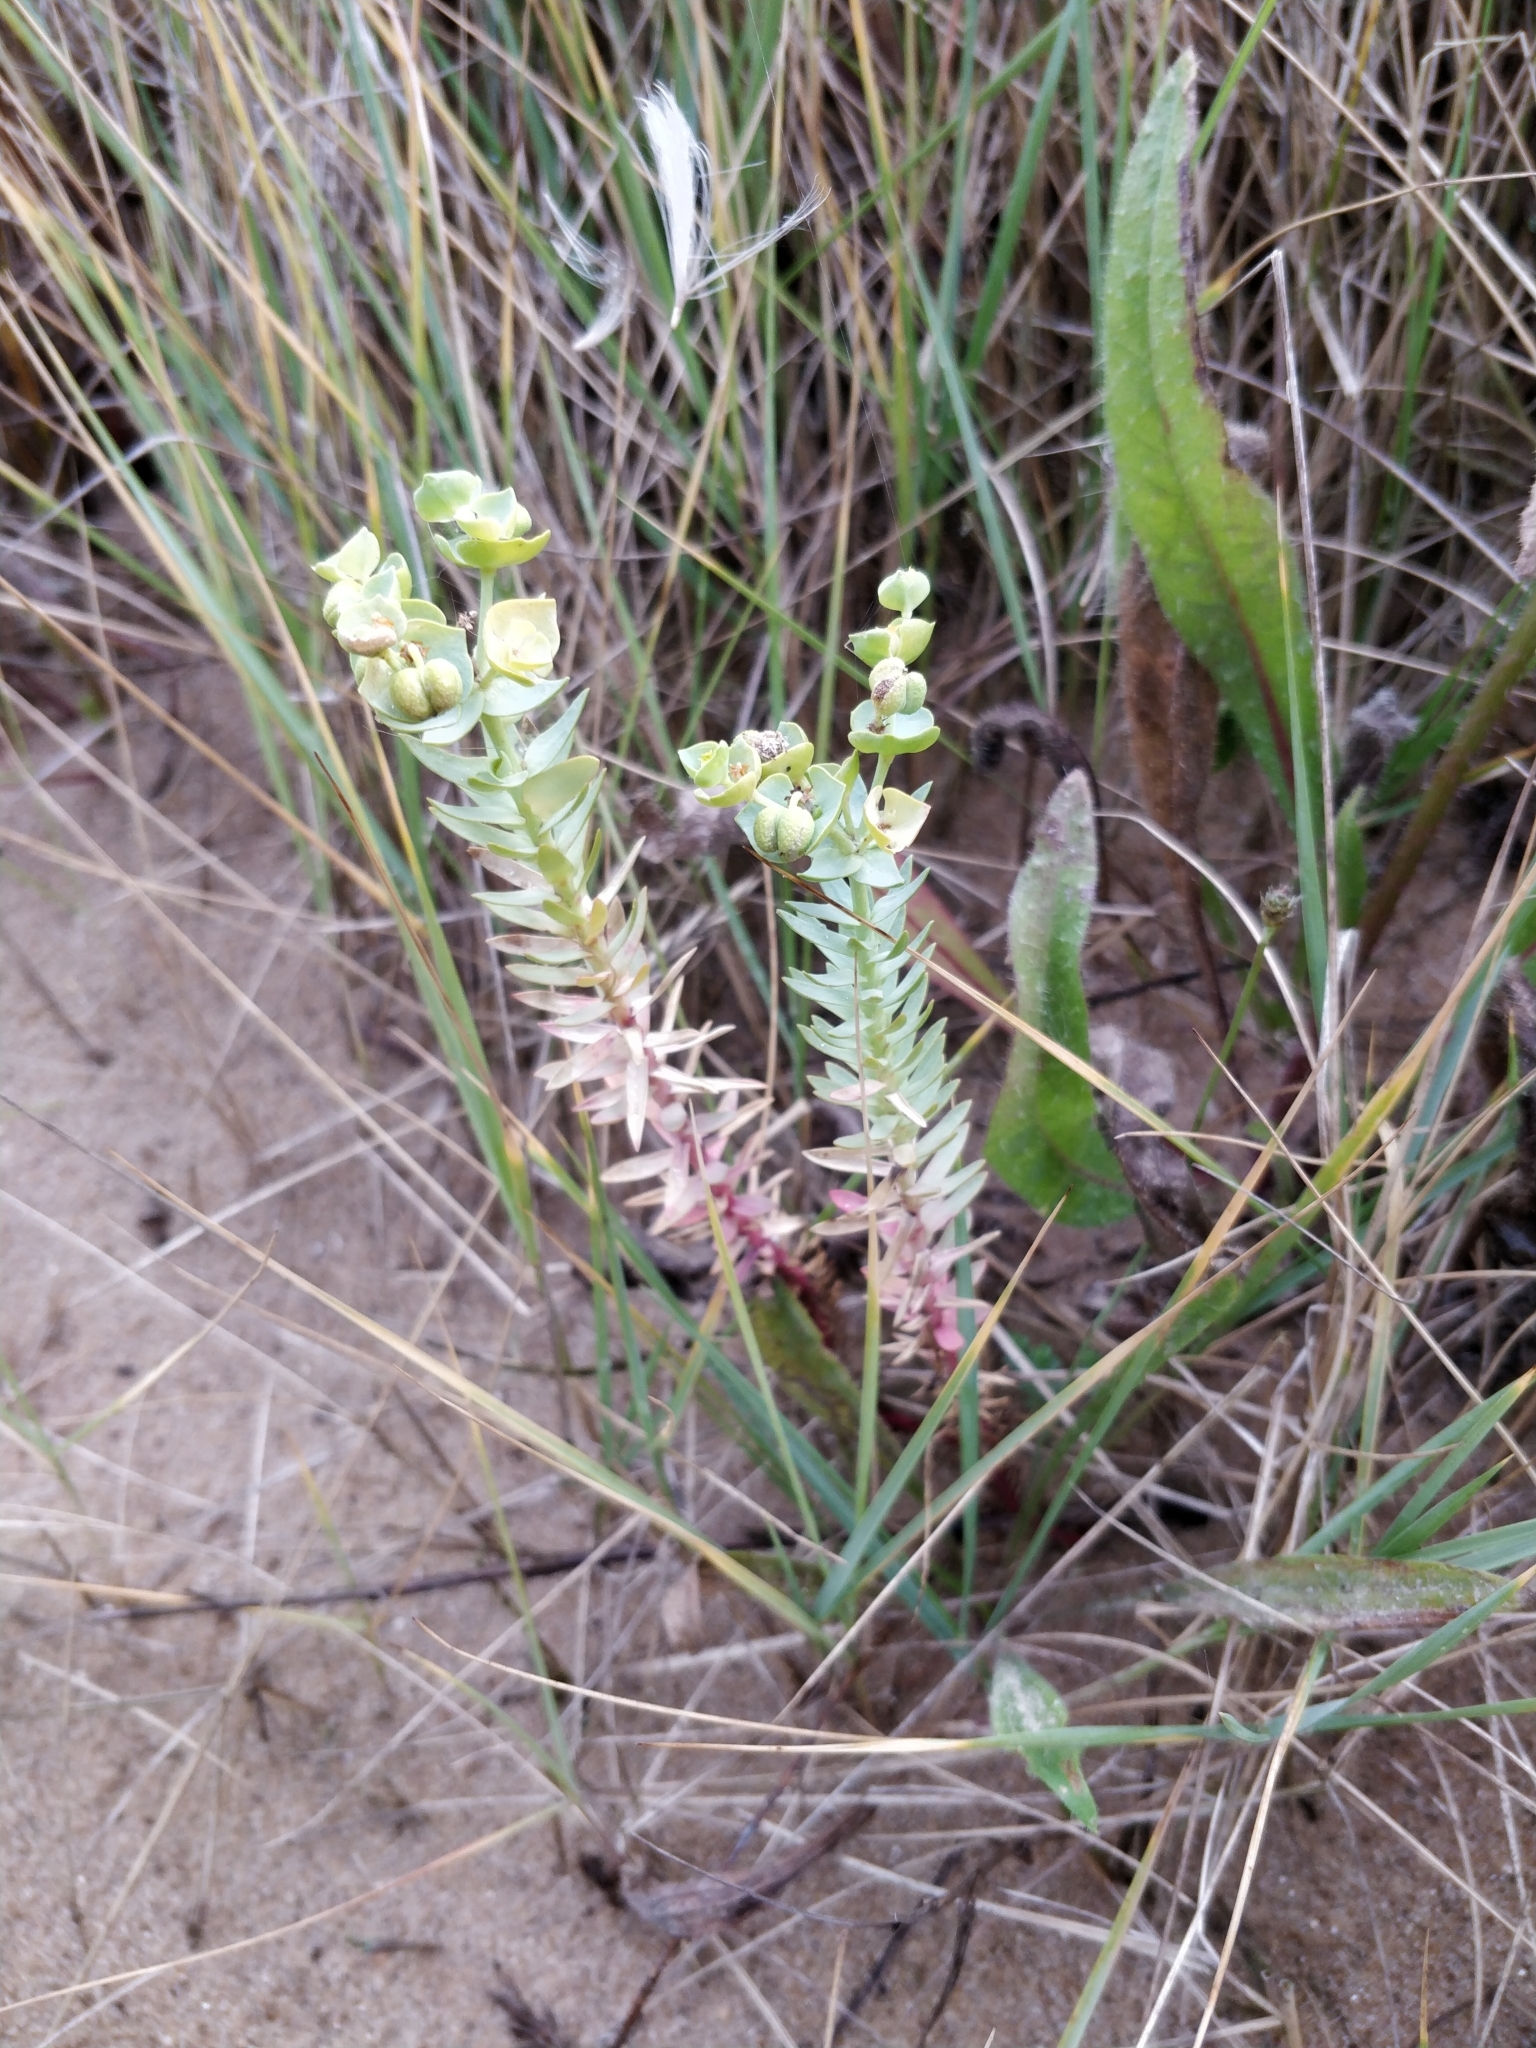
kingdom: Plantae
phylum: Tracheophyta
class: Magnoliopsida
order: Malpighiales
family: Euphorbiaceae
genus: Euphorbia
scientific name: Euphorbia paralias
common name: Sea spurge
